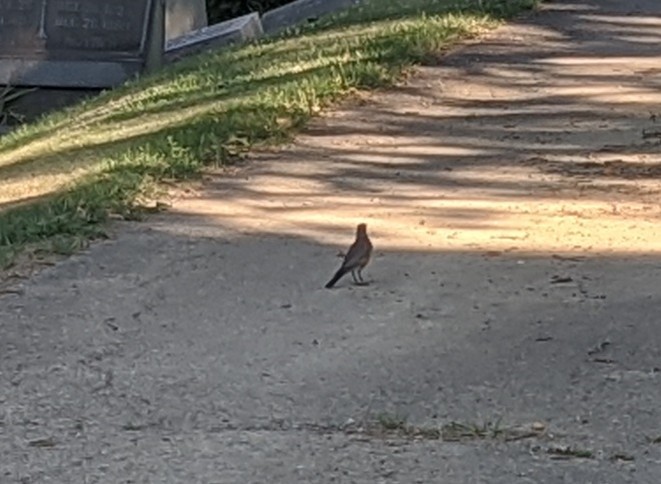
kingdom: Animalia
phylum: Chordata
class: Aves
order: Passeriformes
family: Turdidae
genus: Turdus
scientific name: Turdus migratorius
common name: American robin
